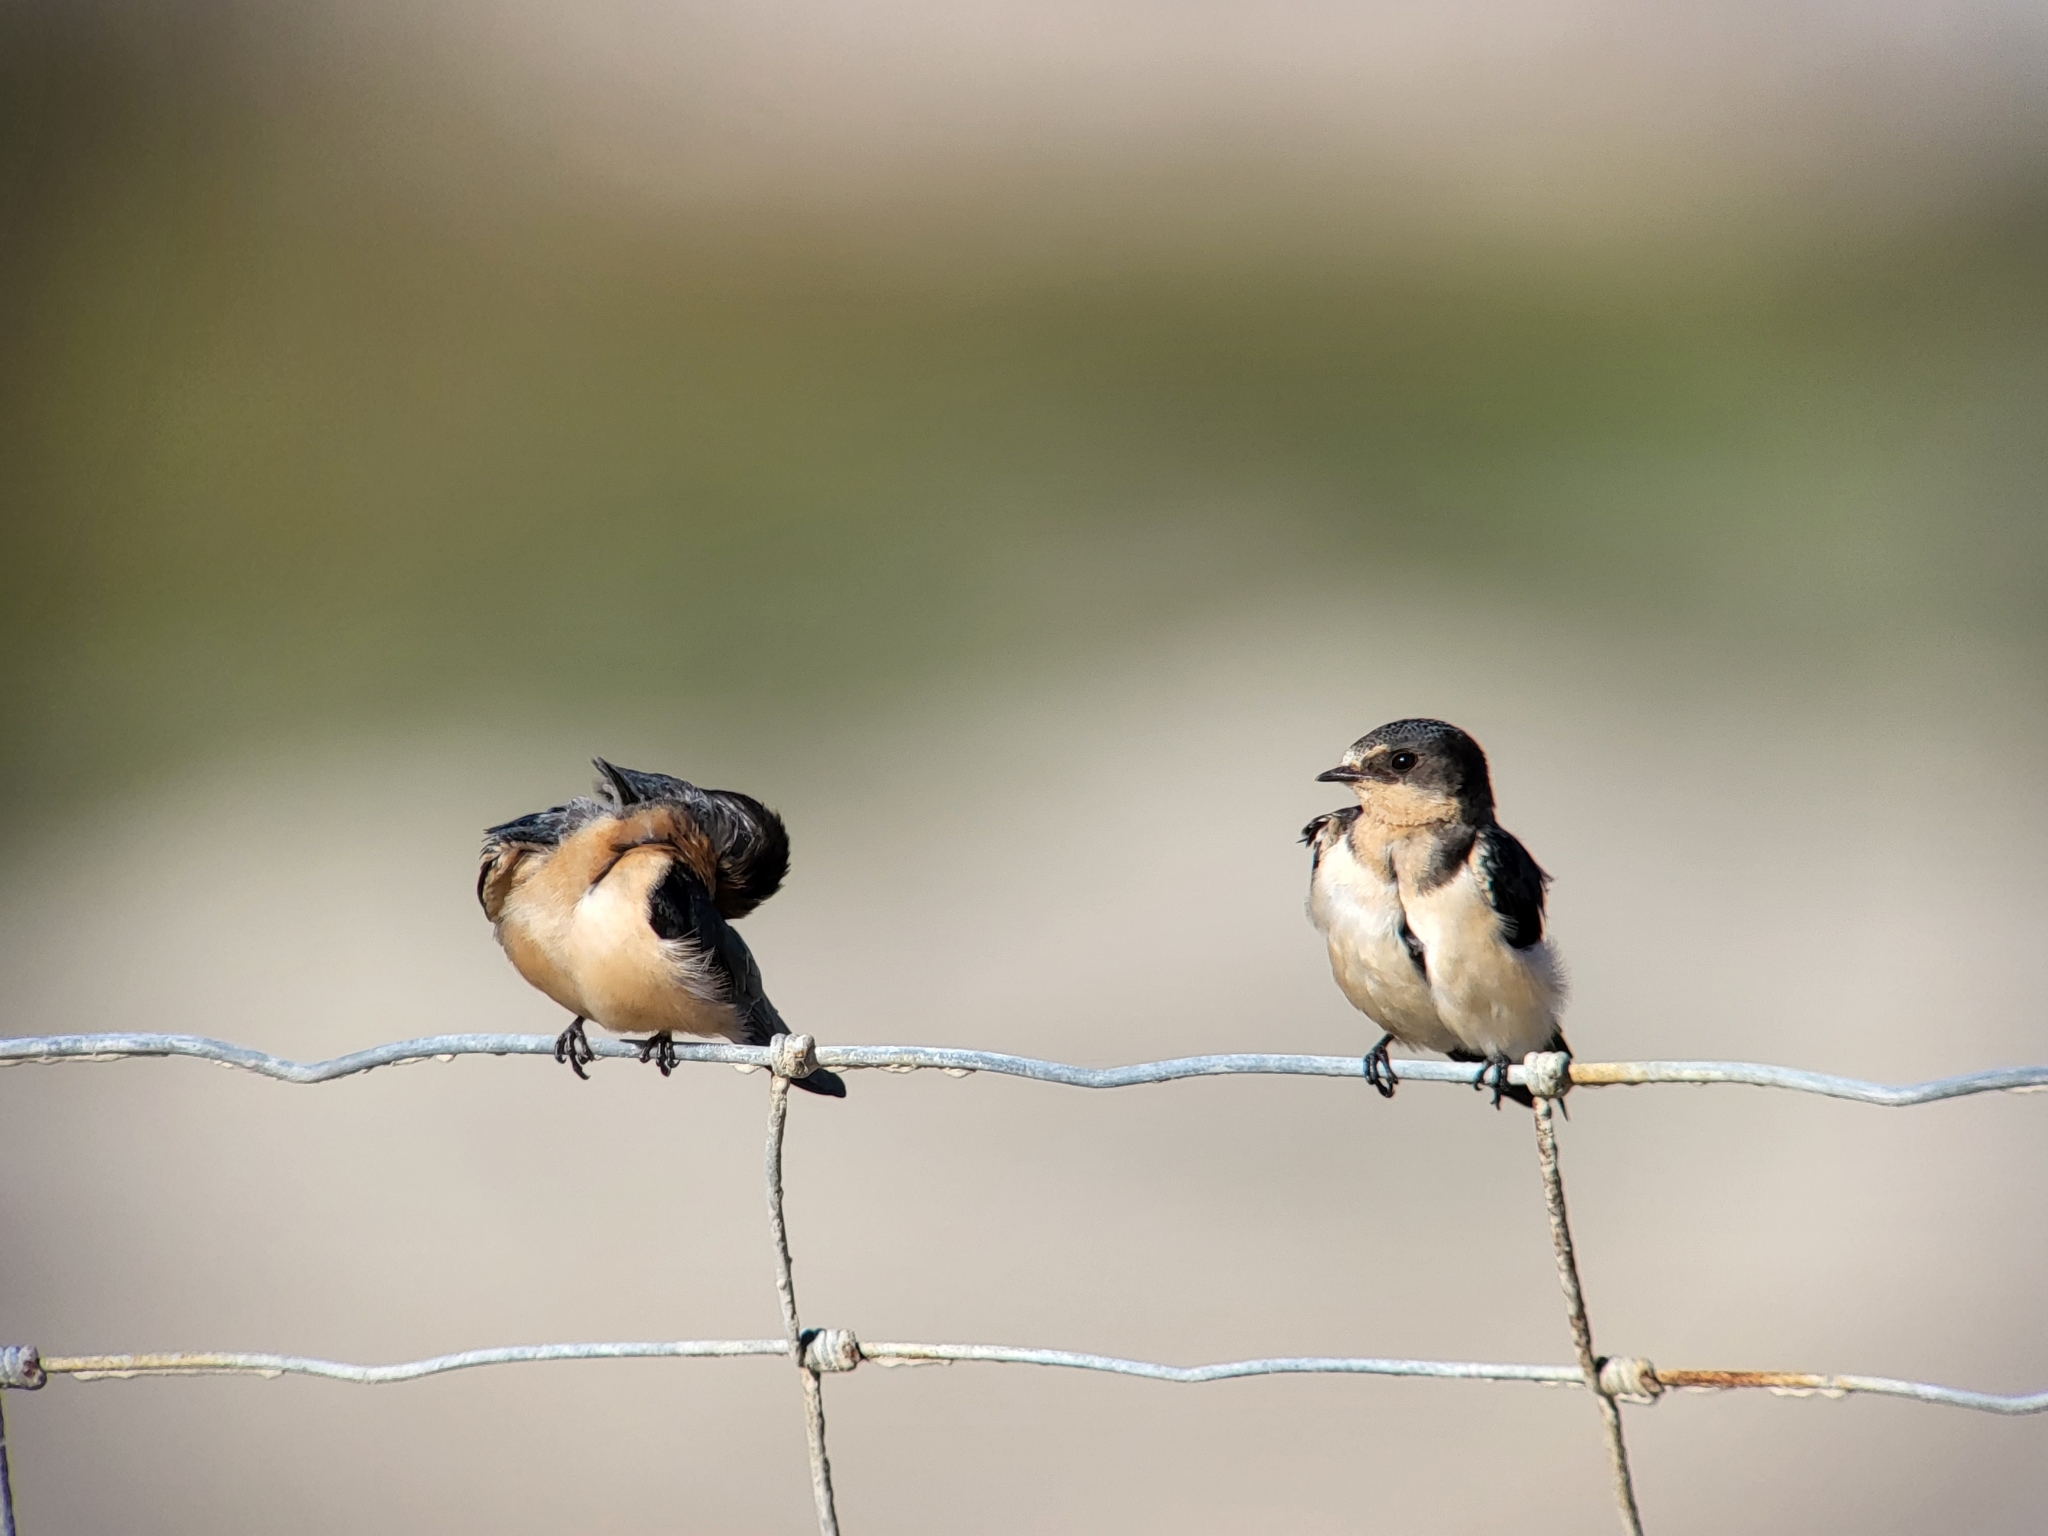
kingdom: Animalia
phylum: Chordata
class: Aves
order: Passeriformes
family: Hirundinidae
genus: Hirundo
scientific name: Hirundo rustica
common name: Barn swallow
